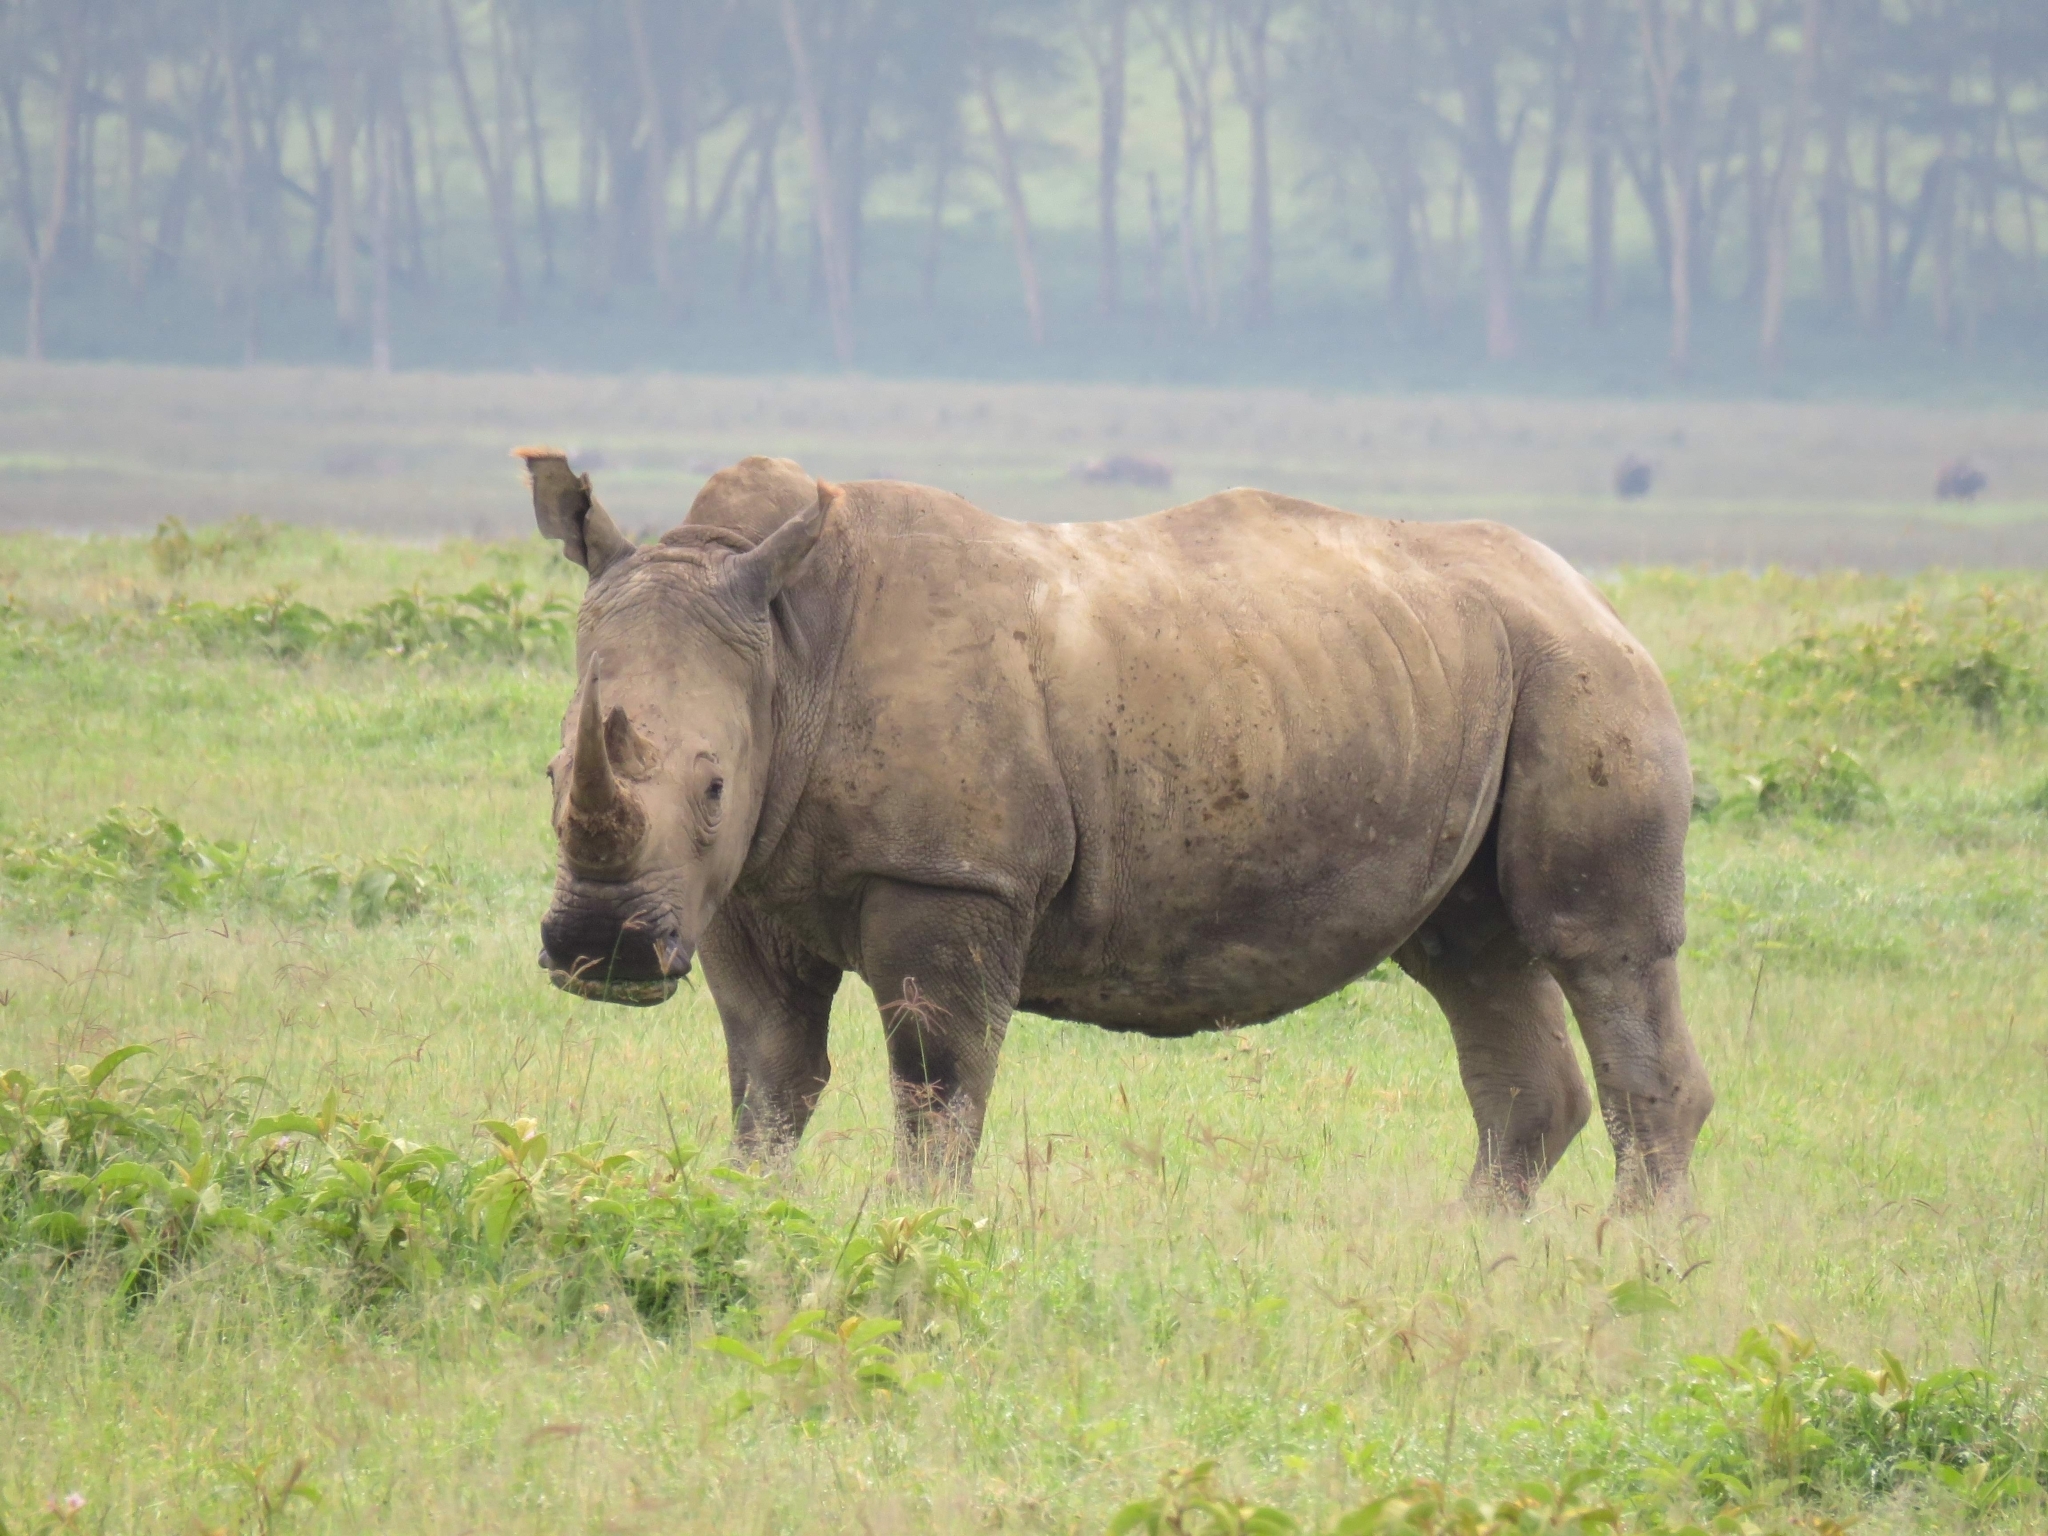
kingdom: Animalia
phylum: Chordata
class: Mammalia
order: Perissodactyla
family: Rhinocerotidae
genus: Ceratotherium
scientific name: Ceratotherium simum
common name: White rhinoceros
